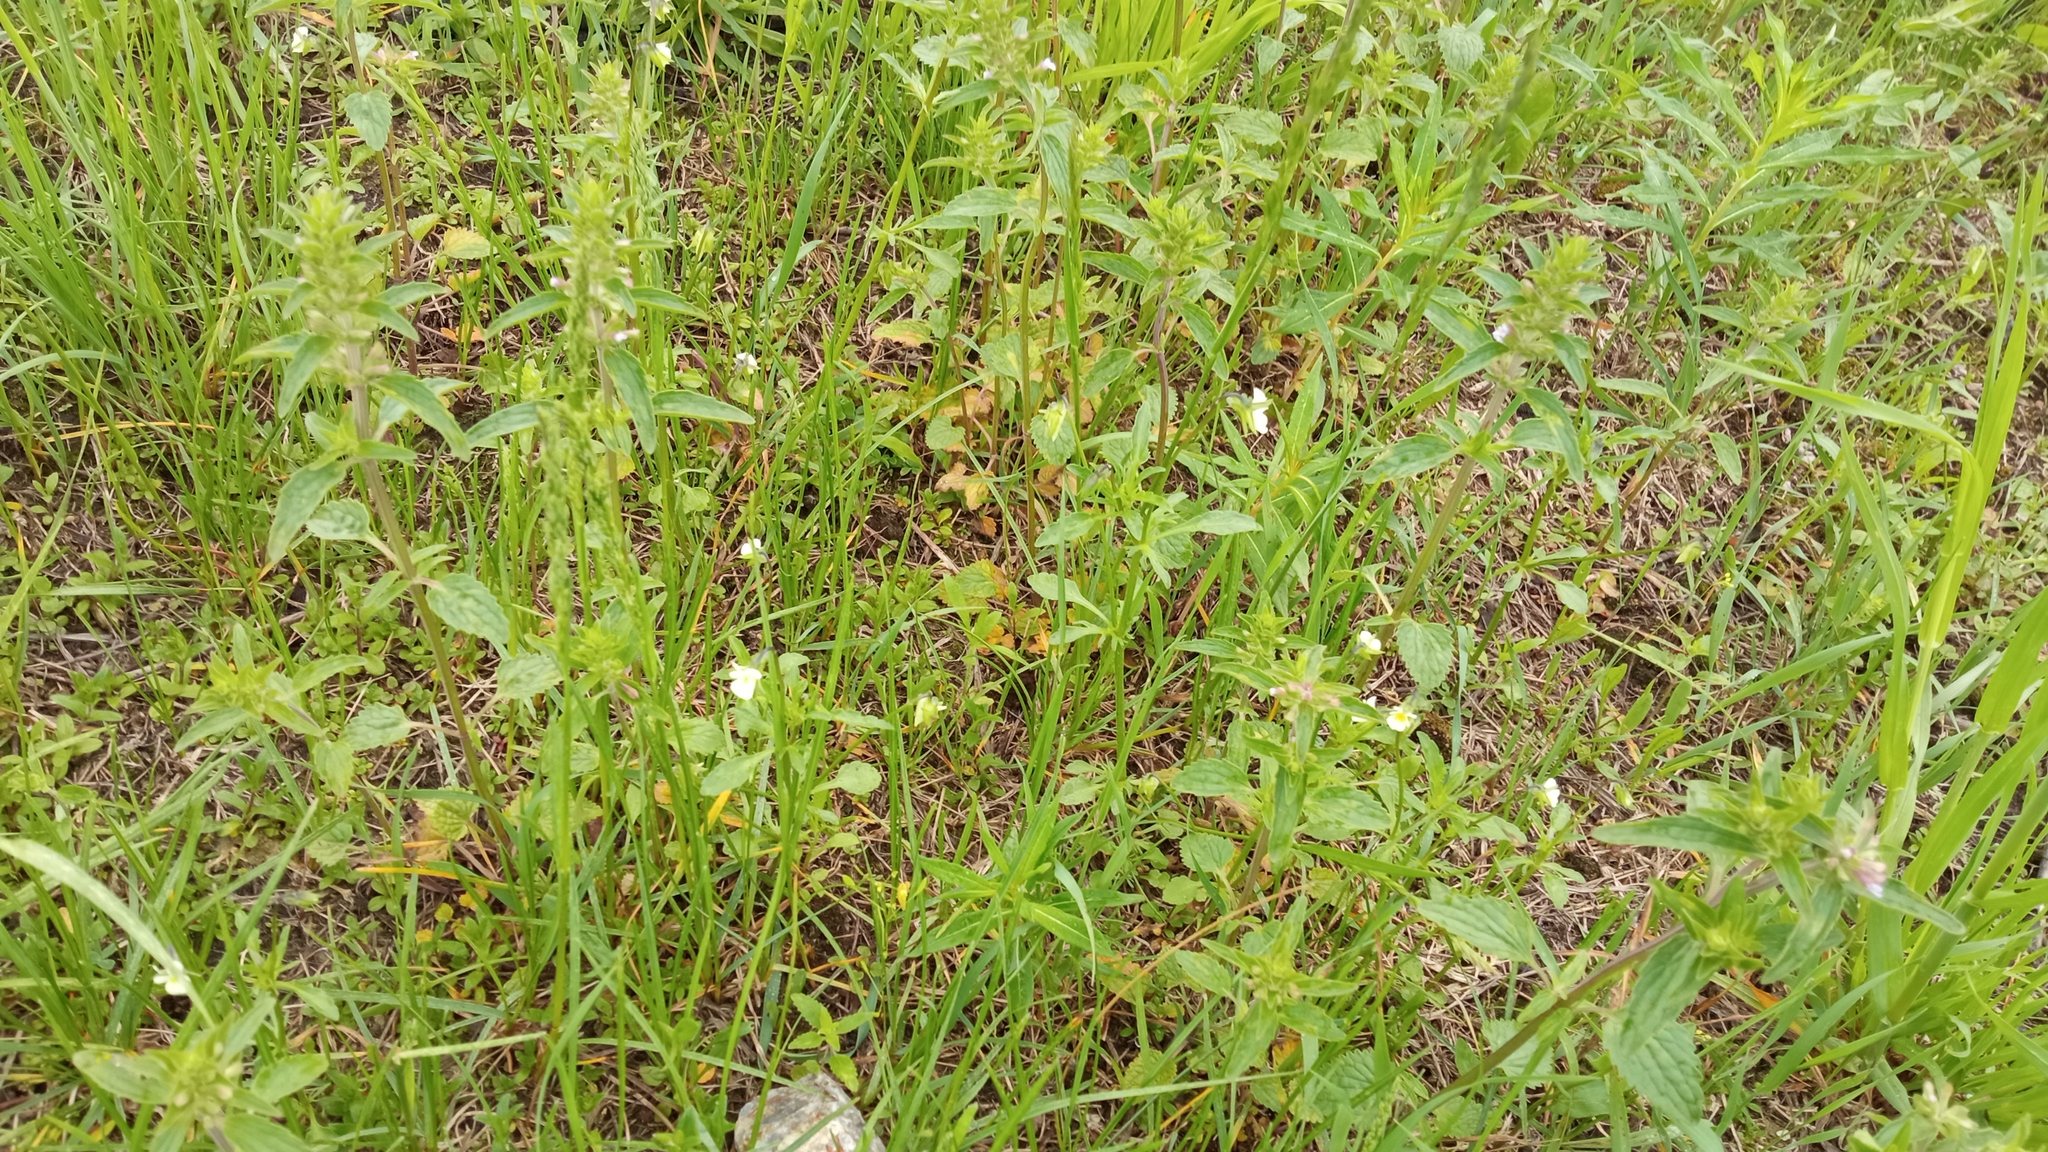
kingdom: Plantae
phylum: Tracheophyta
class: Magnoliopsida
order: Lamiales
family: Lamiaceae
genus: Dracocephalum
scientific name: Dracocephalum thymiflorum
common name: Thymeleaf dragonhead
